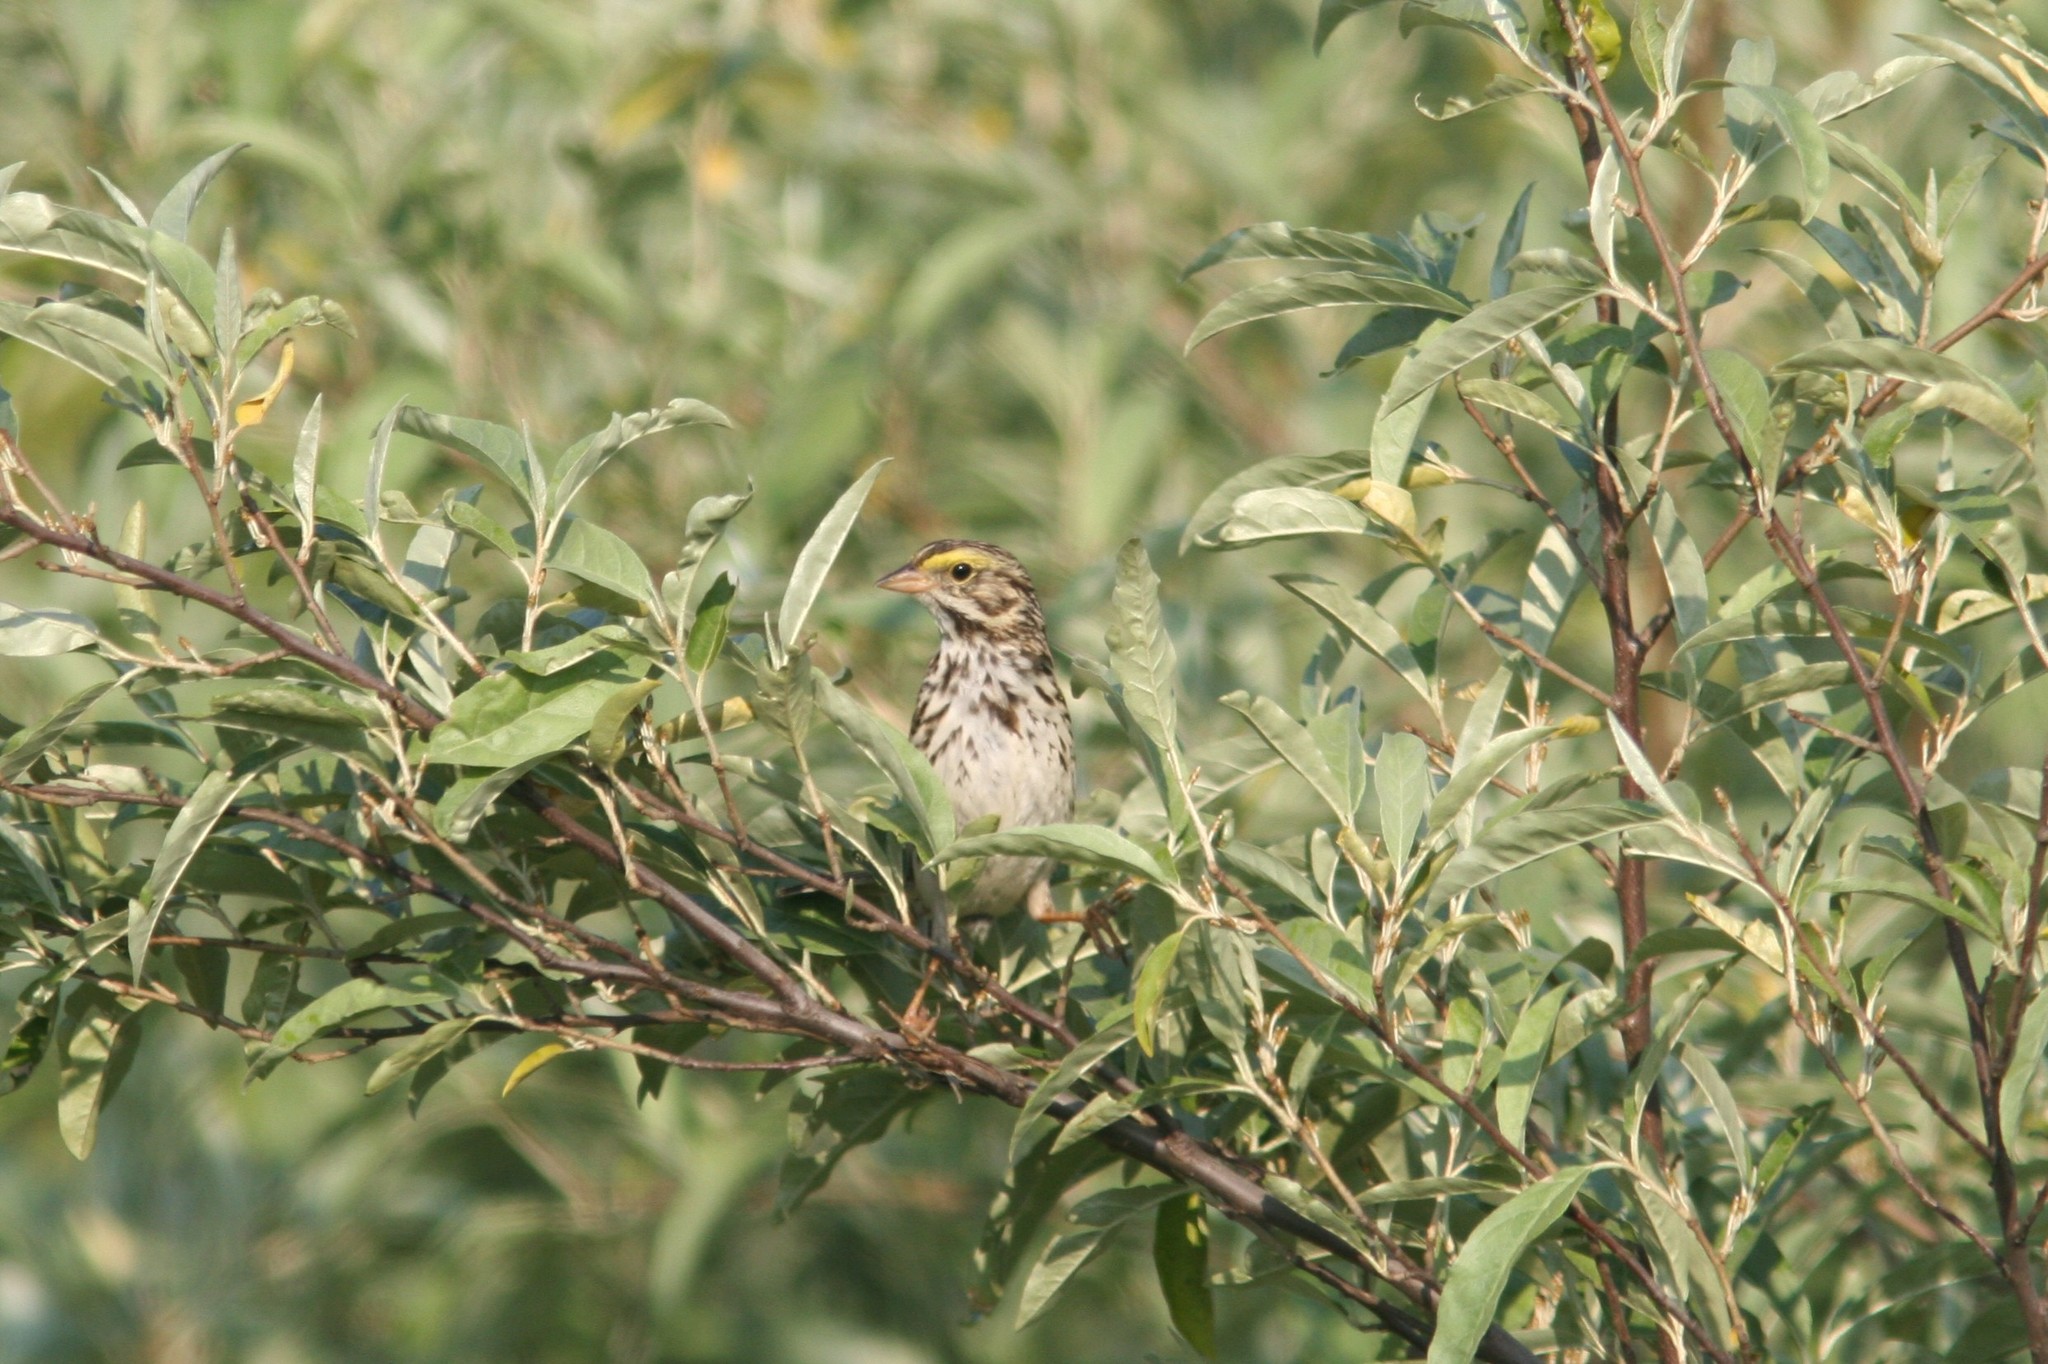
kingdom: Animalia
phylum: Chordata
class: Aves
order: Passeriformes
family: Passerellidae
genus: Passerculus
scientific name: Passerculus sandwichensis
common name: Savannah sparrow
